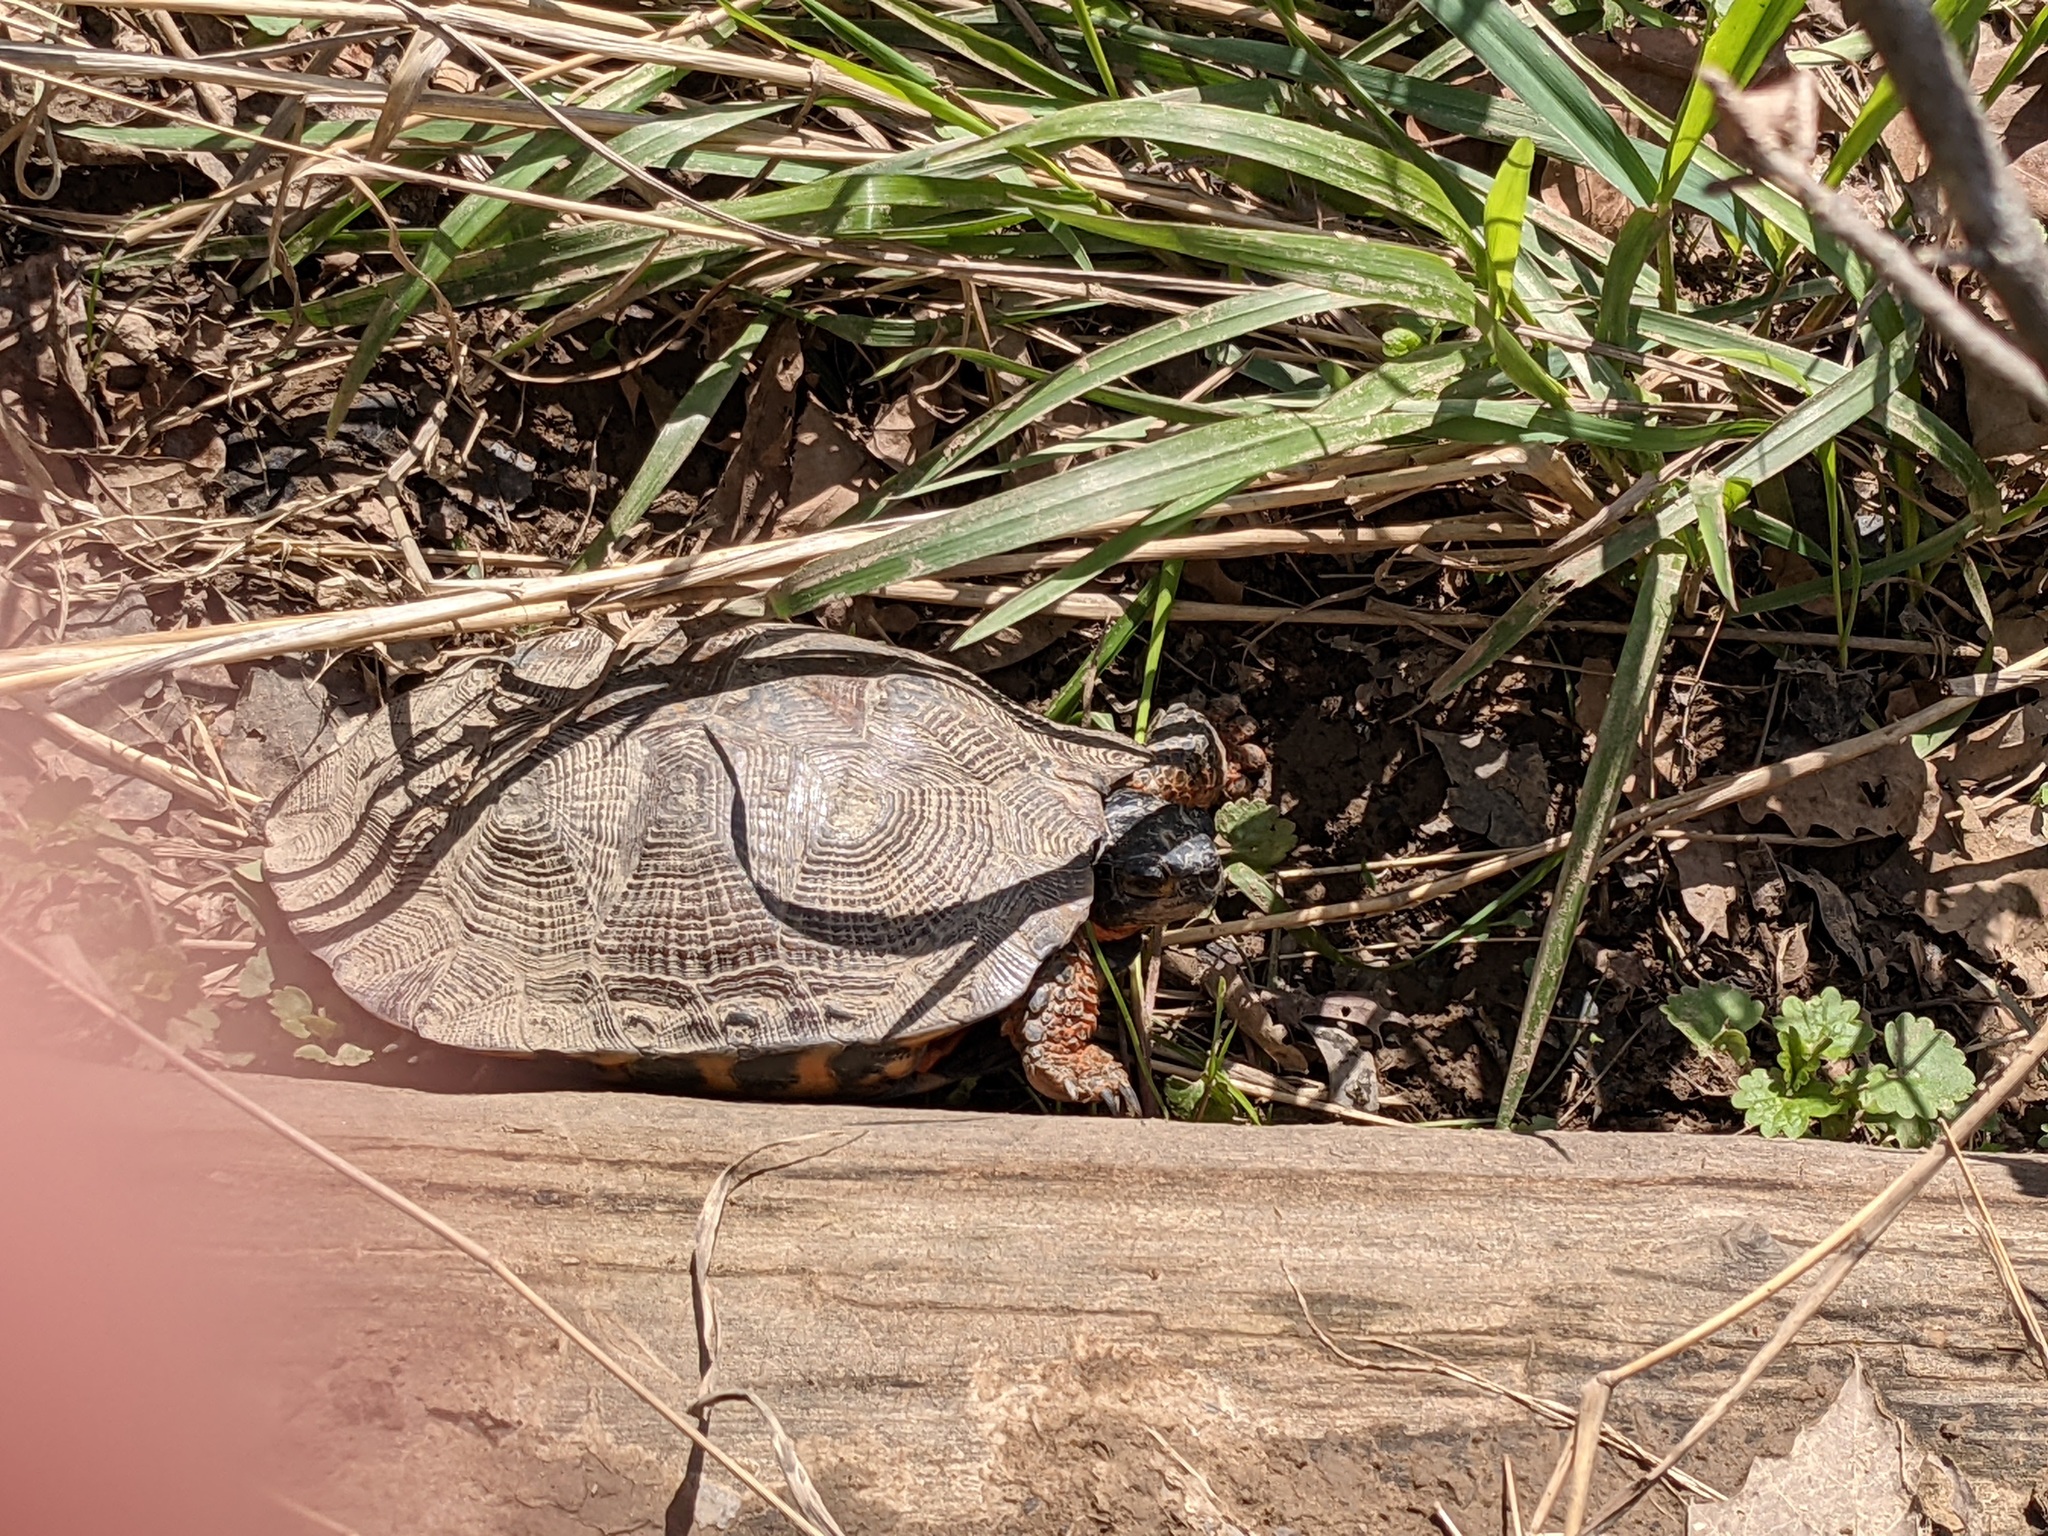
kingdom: Animalia
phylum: Chordata
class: Testudines
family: Emydidae
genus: Glyptemys
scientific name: Glyptemys insculpta
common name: Wood turtle
